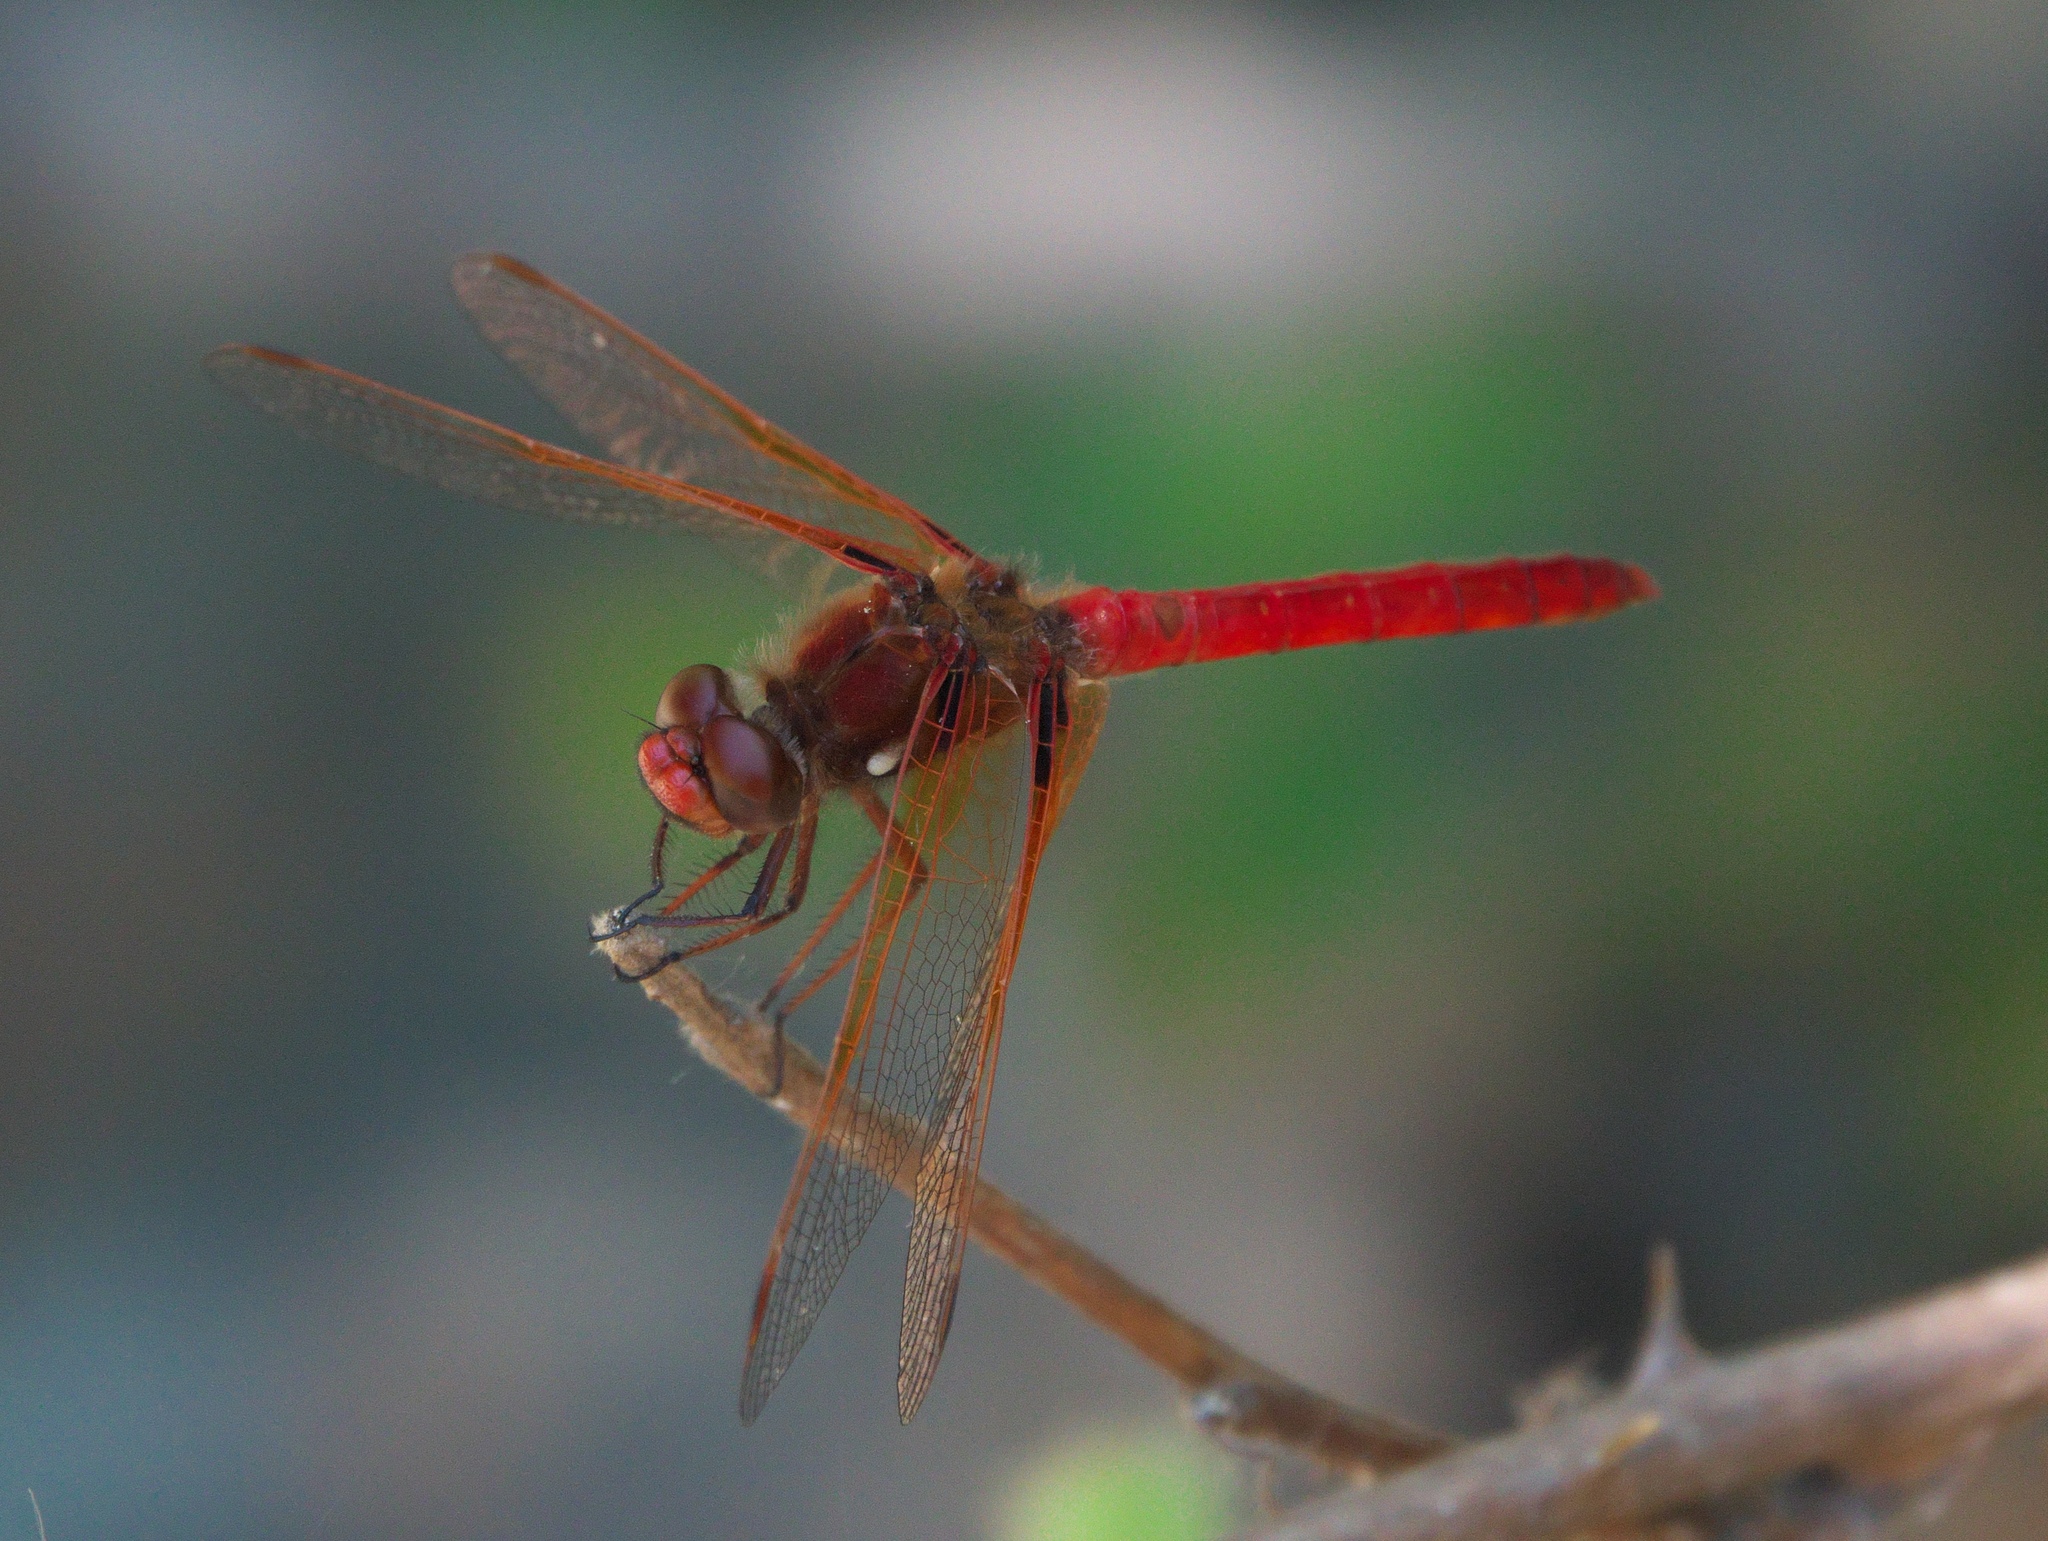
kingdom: Animalia
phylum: Arthropoda
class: Insecta
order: Odonata
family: Libellulidae
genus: Sympetrum
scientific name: Sympetrum illotum
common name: Cardinal meadowhawk
